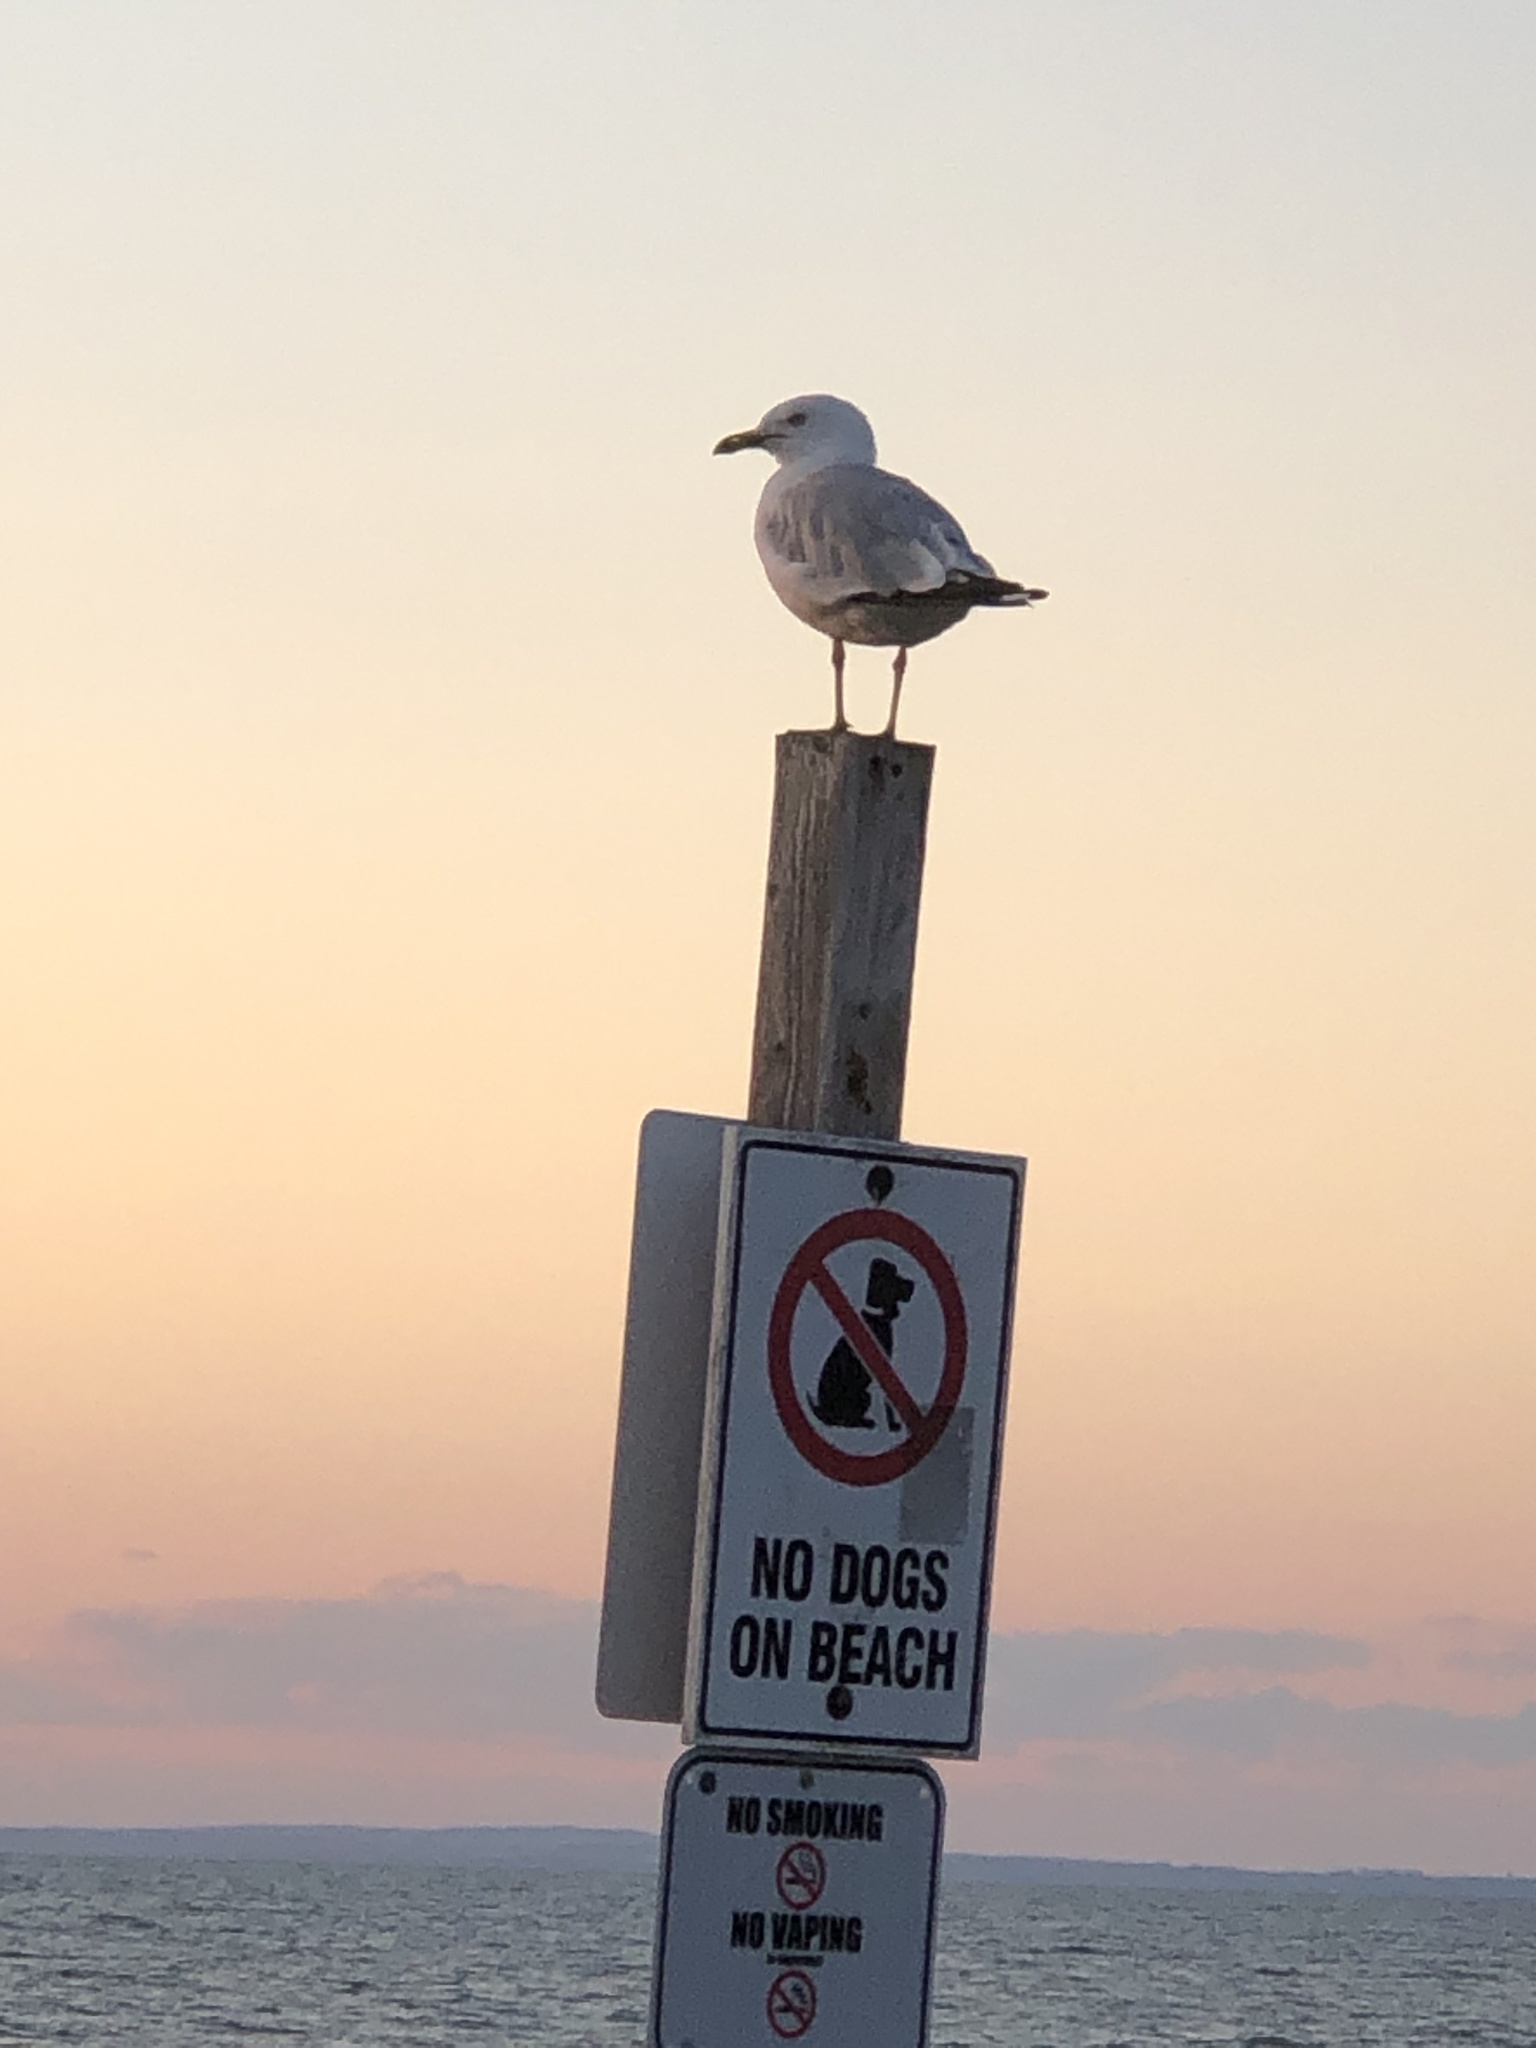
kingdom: Animalia
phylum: Chordata
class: Aves
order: Charadriiformes
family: Laridae
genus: Larus
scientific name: Larus delawarensis
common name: Ring-billed gull
